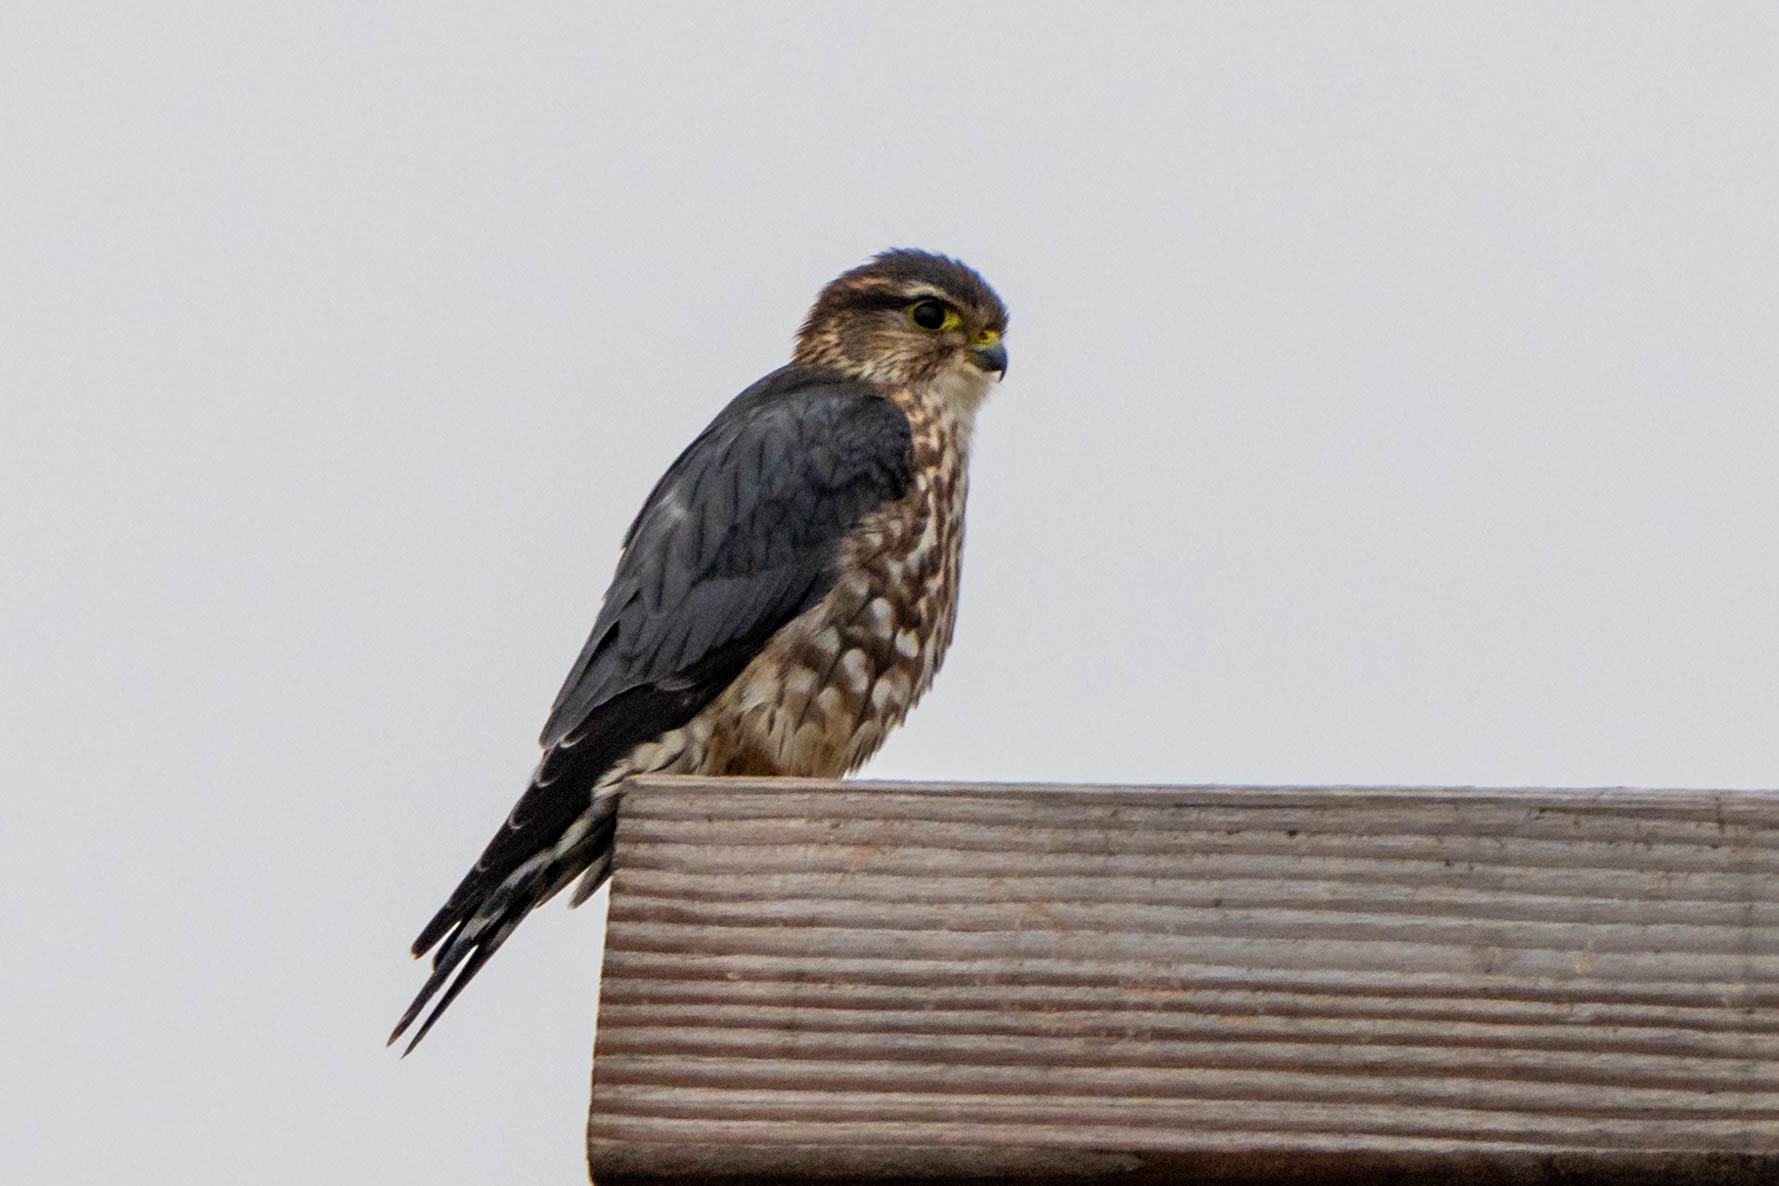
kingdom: Animalia
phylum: Chordata
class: Aves
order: Falconiformes
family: Falconidae
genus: Falco
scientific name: Falco columbarius
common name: Merlin
